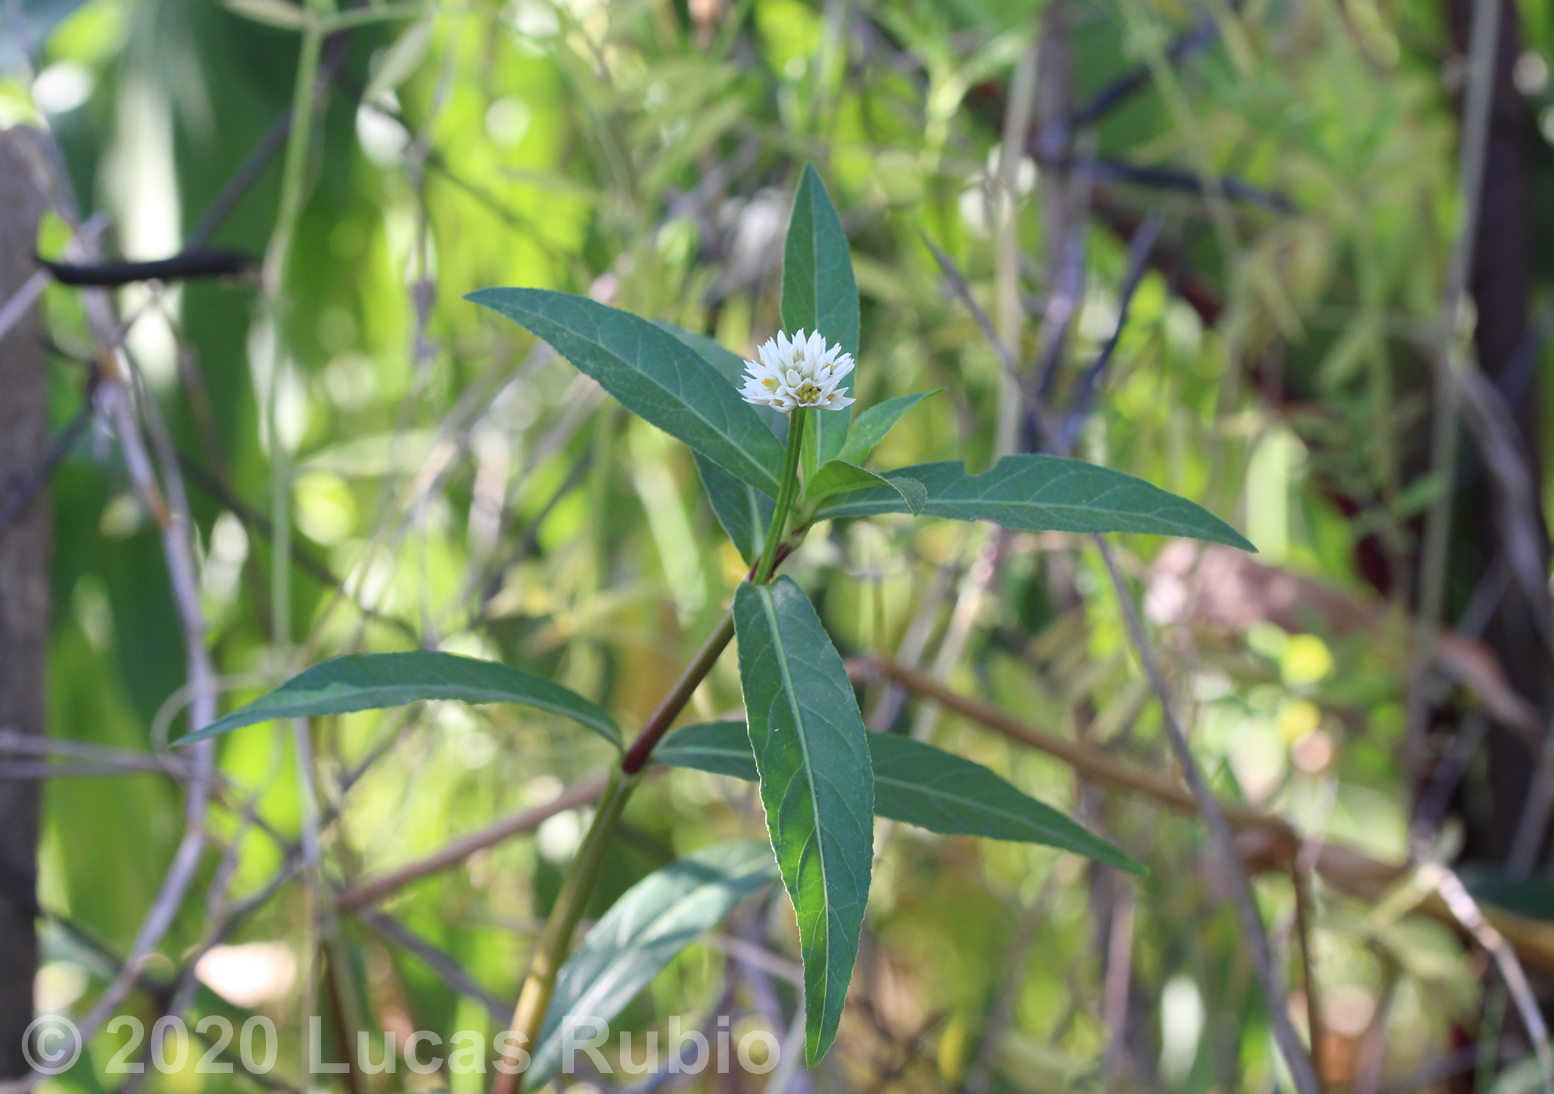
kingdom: Plantae
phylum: Tracheophyta
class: Magnoliopsida
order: Caryophyllales
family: Amaranthaceae
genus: Alternanthera
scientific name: Alternanthera philoxeroides
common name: Alligatorweed
